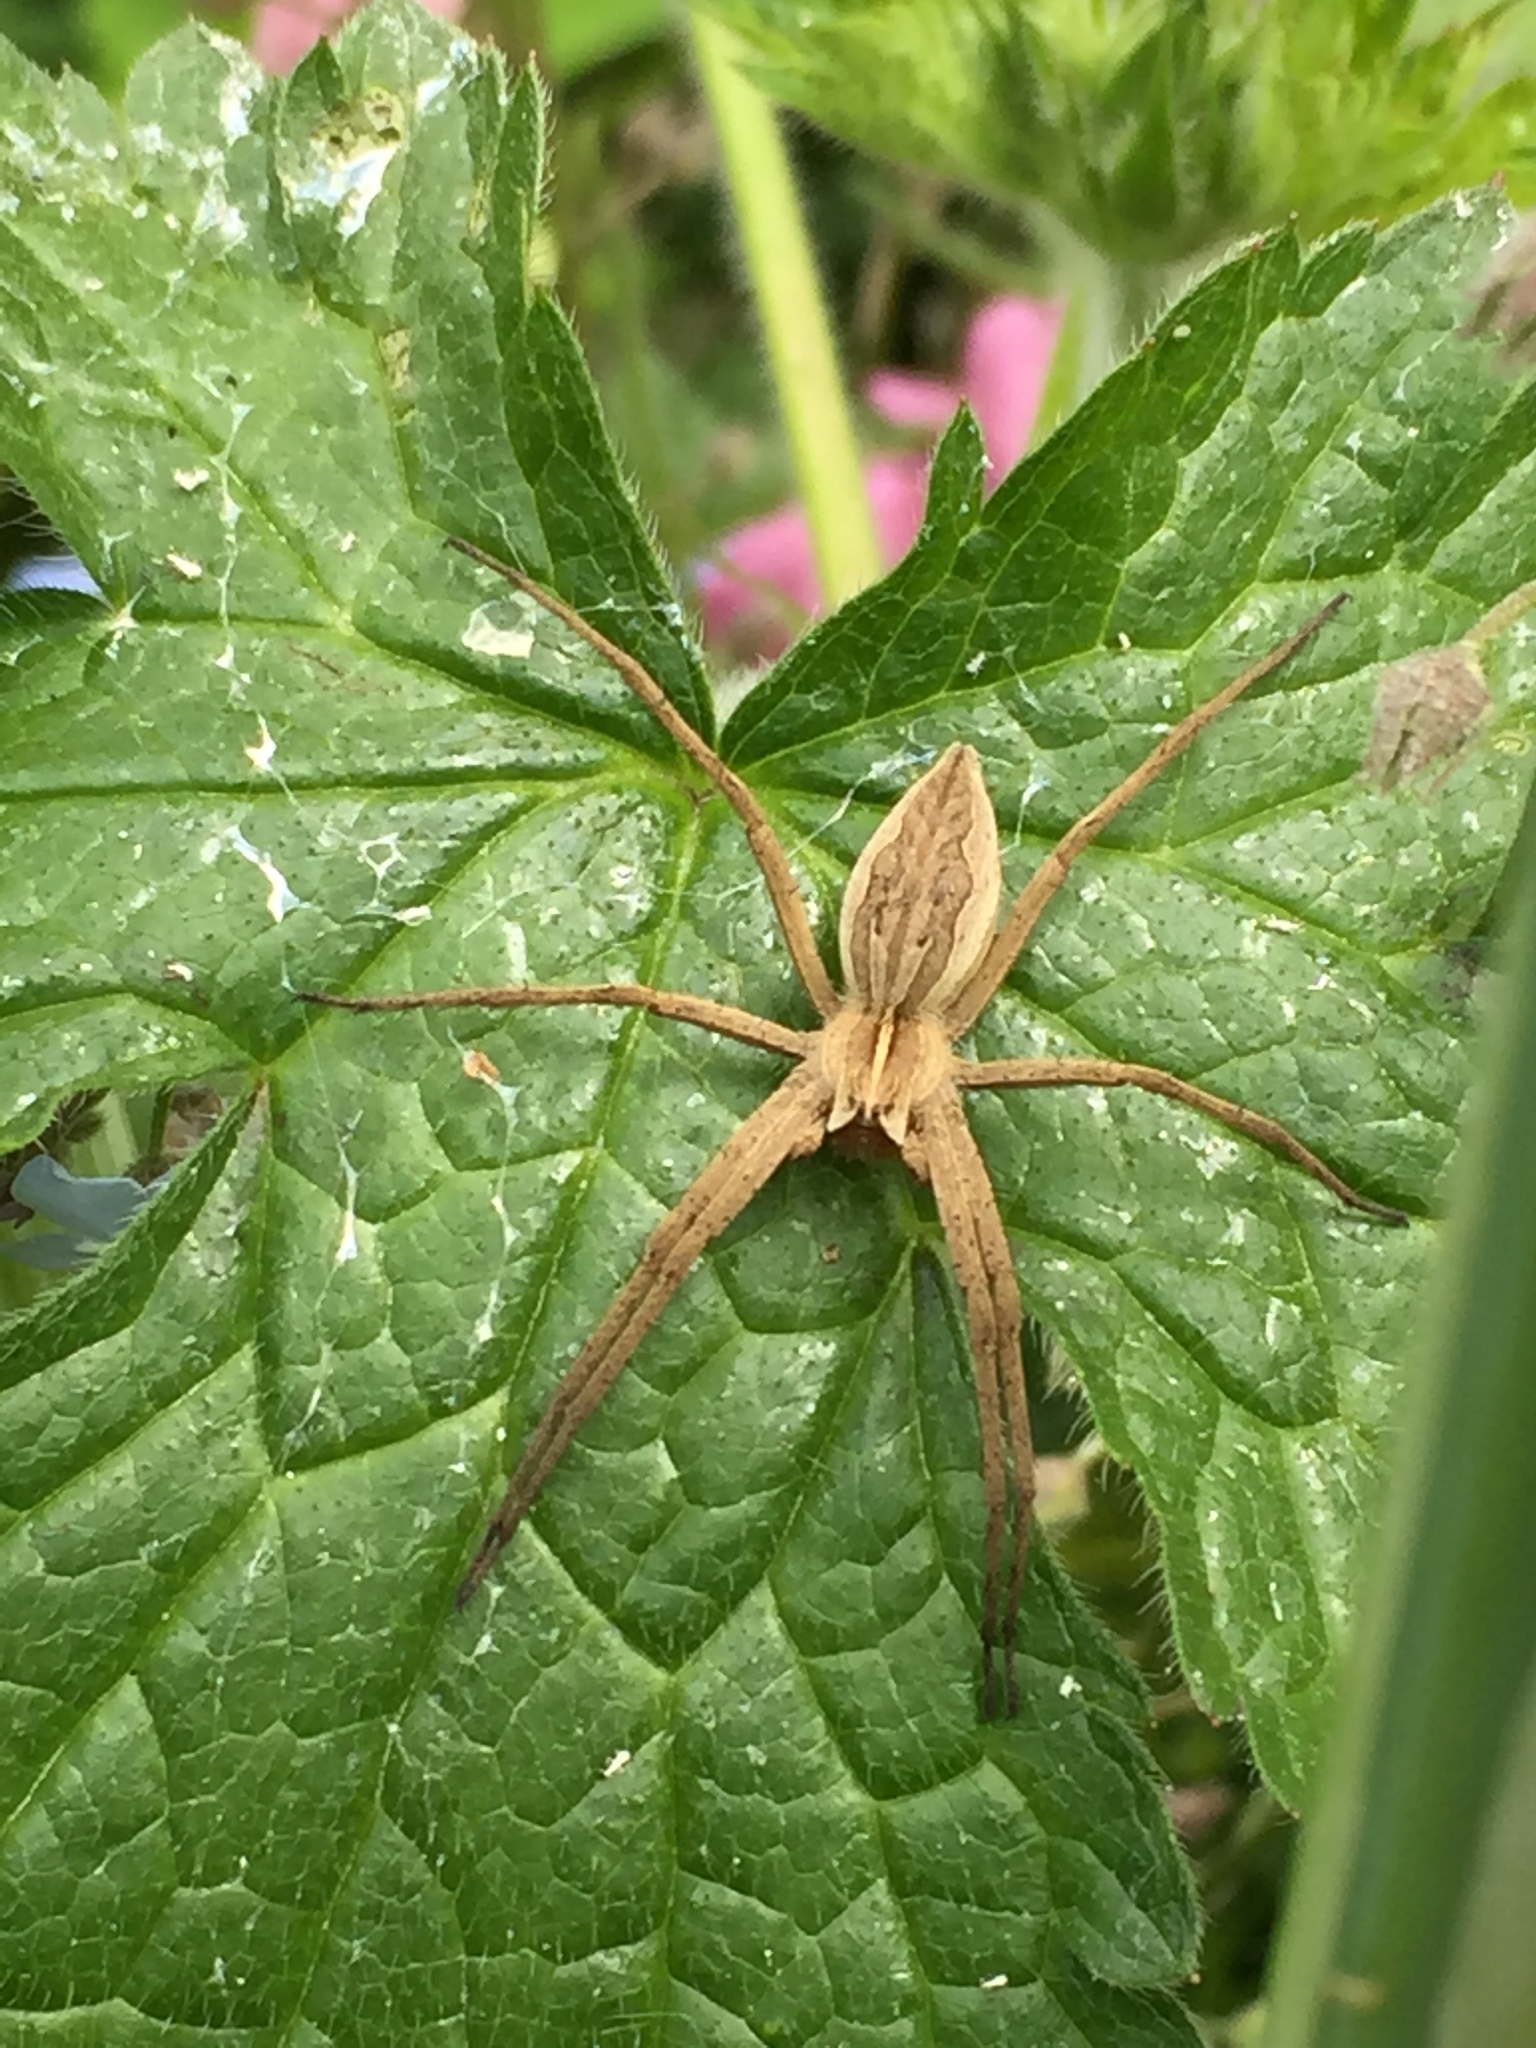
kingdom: Animalia
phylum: Arthropoda
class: Arachnida
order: Araneae
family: Pisauridae
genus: Pisaura
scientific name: Pisaura mirabilis
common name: Tent spider
